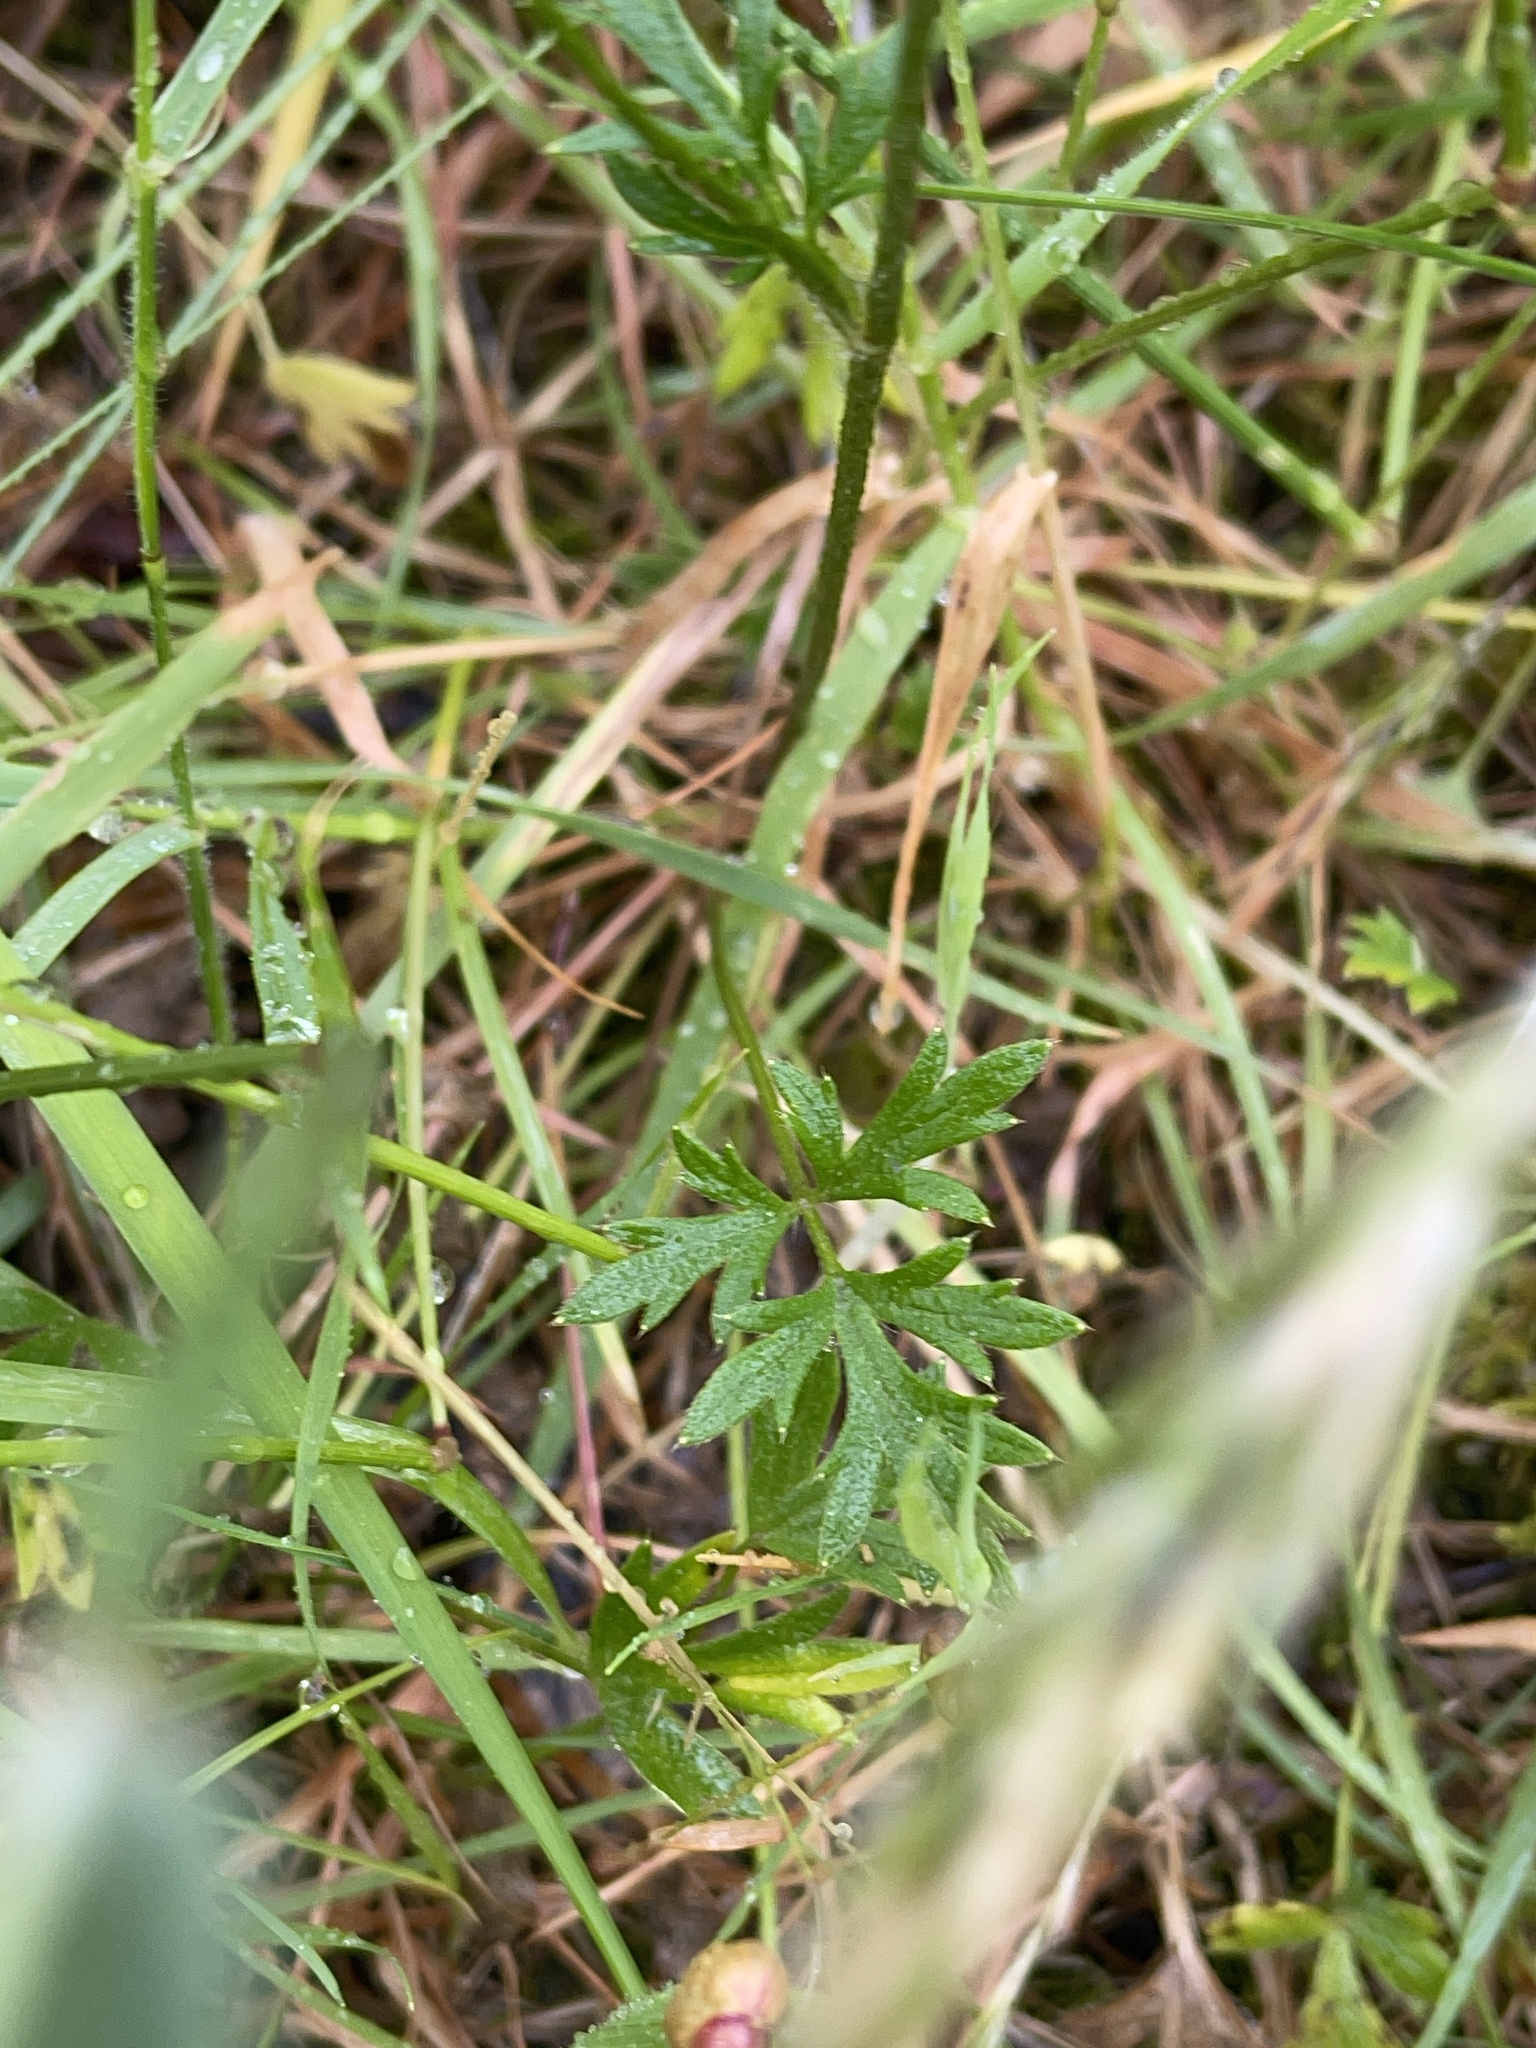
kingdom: Plantae
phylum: Tracheophyta
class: Magnoliopsida
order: Ranunculales
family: Ranunculaceae
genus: Ranunculus
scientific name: Ranunculus lappaceus
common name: Australian buttercup
